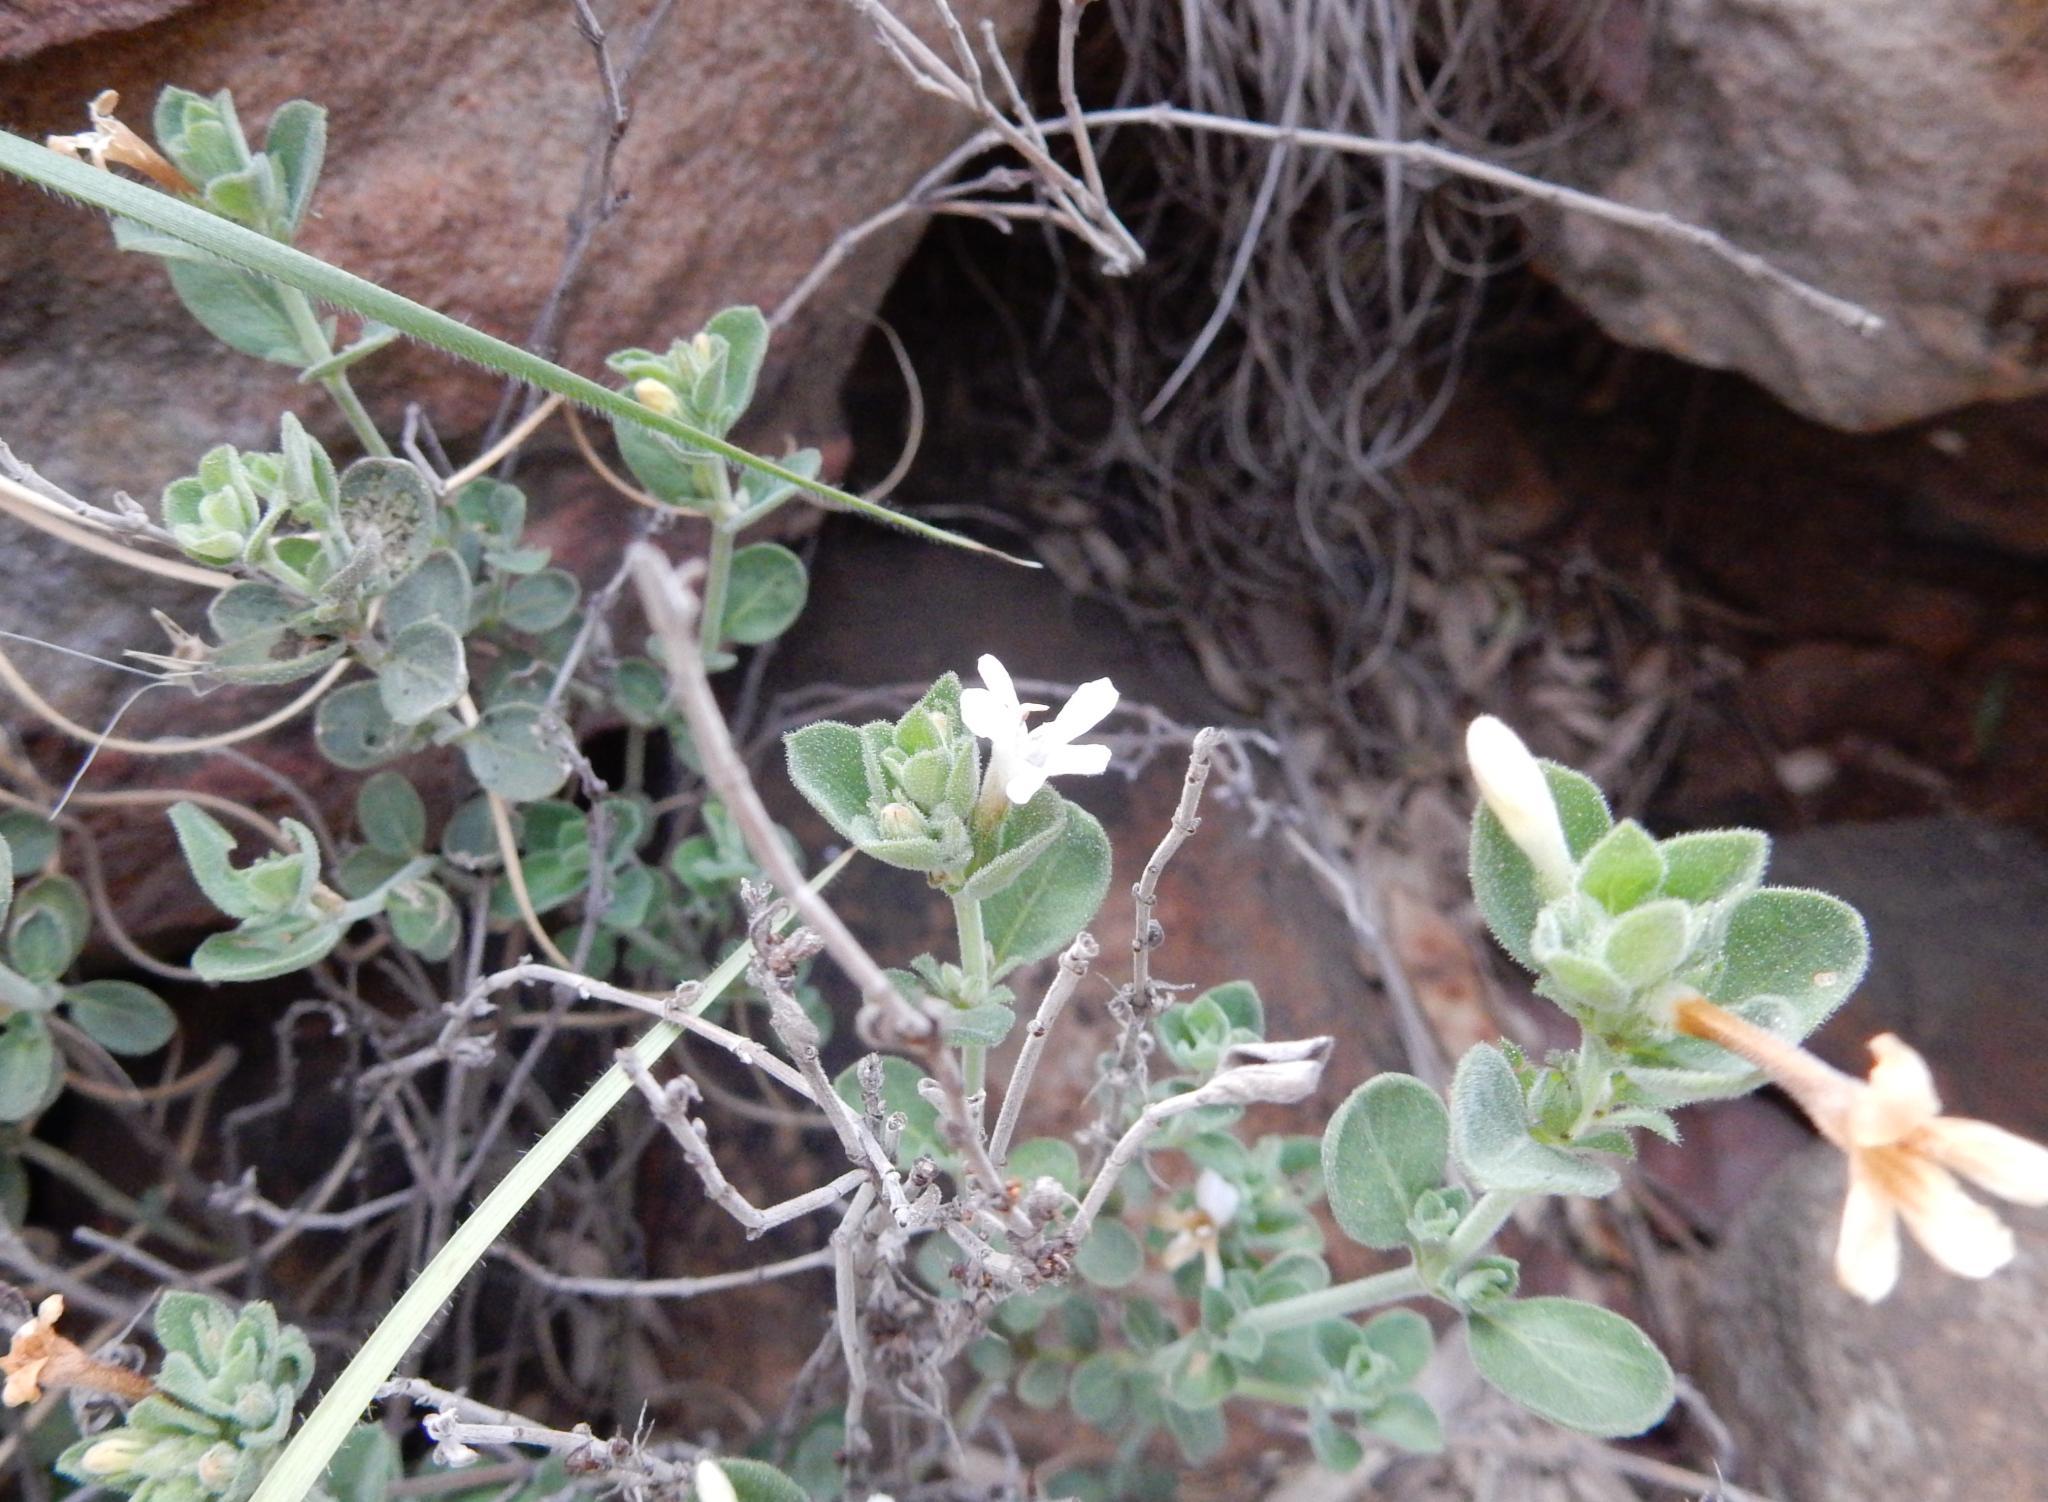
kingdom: Plantae
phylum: Tracheophyta
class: Magnoliopsida
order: Lamiales
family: Acanthaceae
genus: Dyschoriste
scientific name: Dyschoriste setigera
